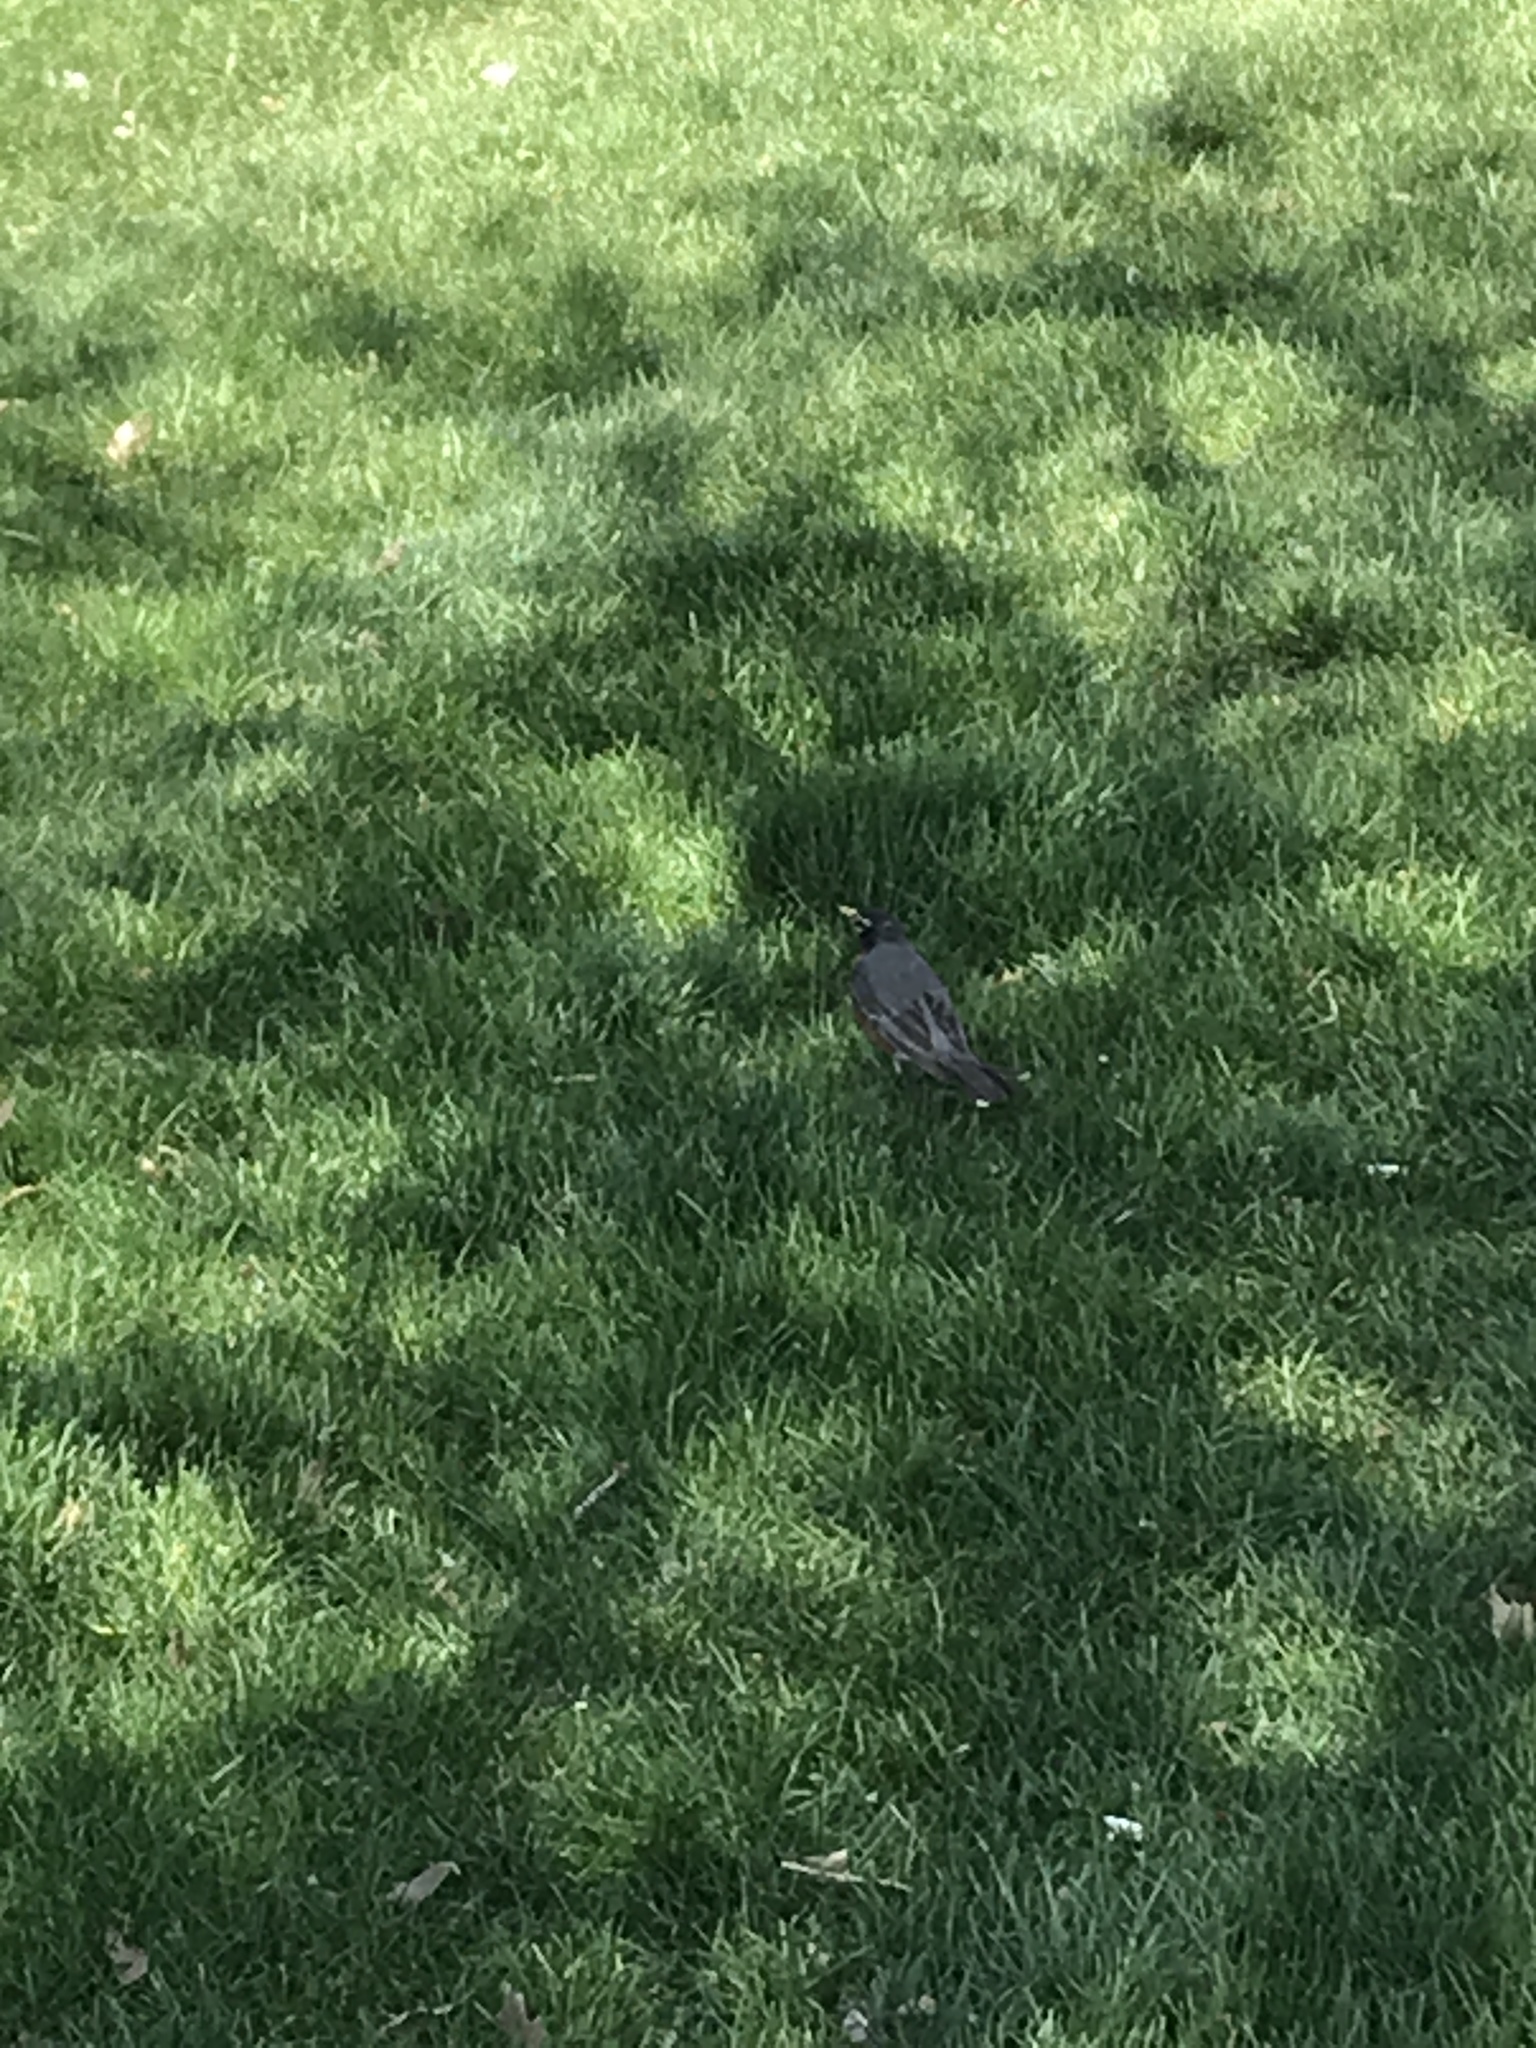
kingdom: Animalia
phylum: Chordata
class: Aves
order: Passeriformes
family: Turdidae
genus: Turdus
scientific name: Turdus migratorius
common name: American robin
